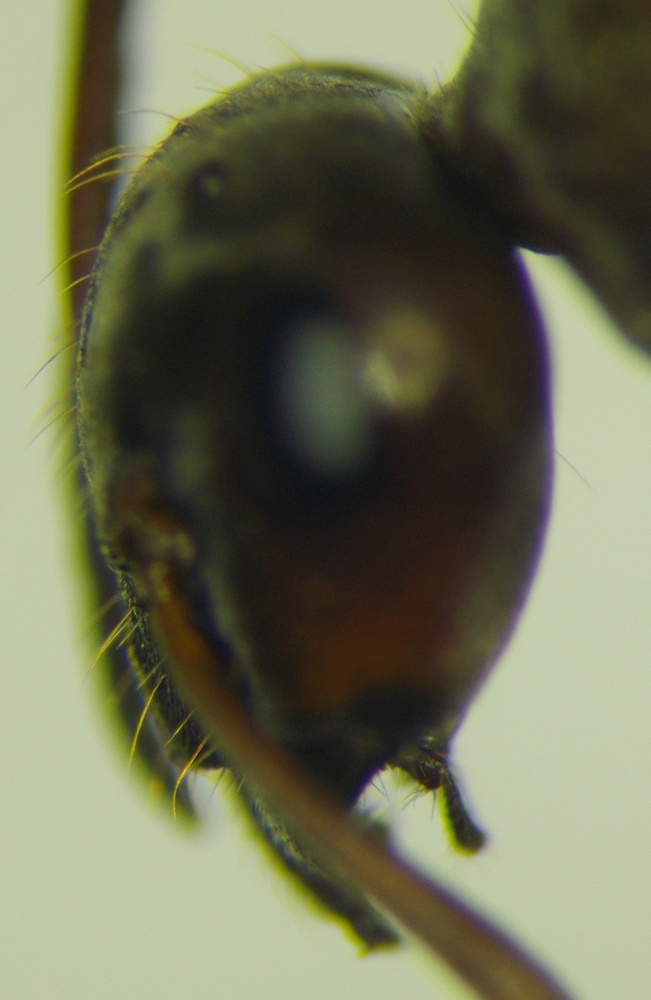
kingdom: Animalia
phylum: Arthropoda
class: Insecta
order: Hymenoptera
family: Formicidae
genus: Formica
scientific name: Formica subpilosa
